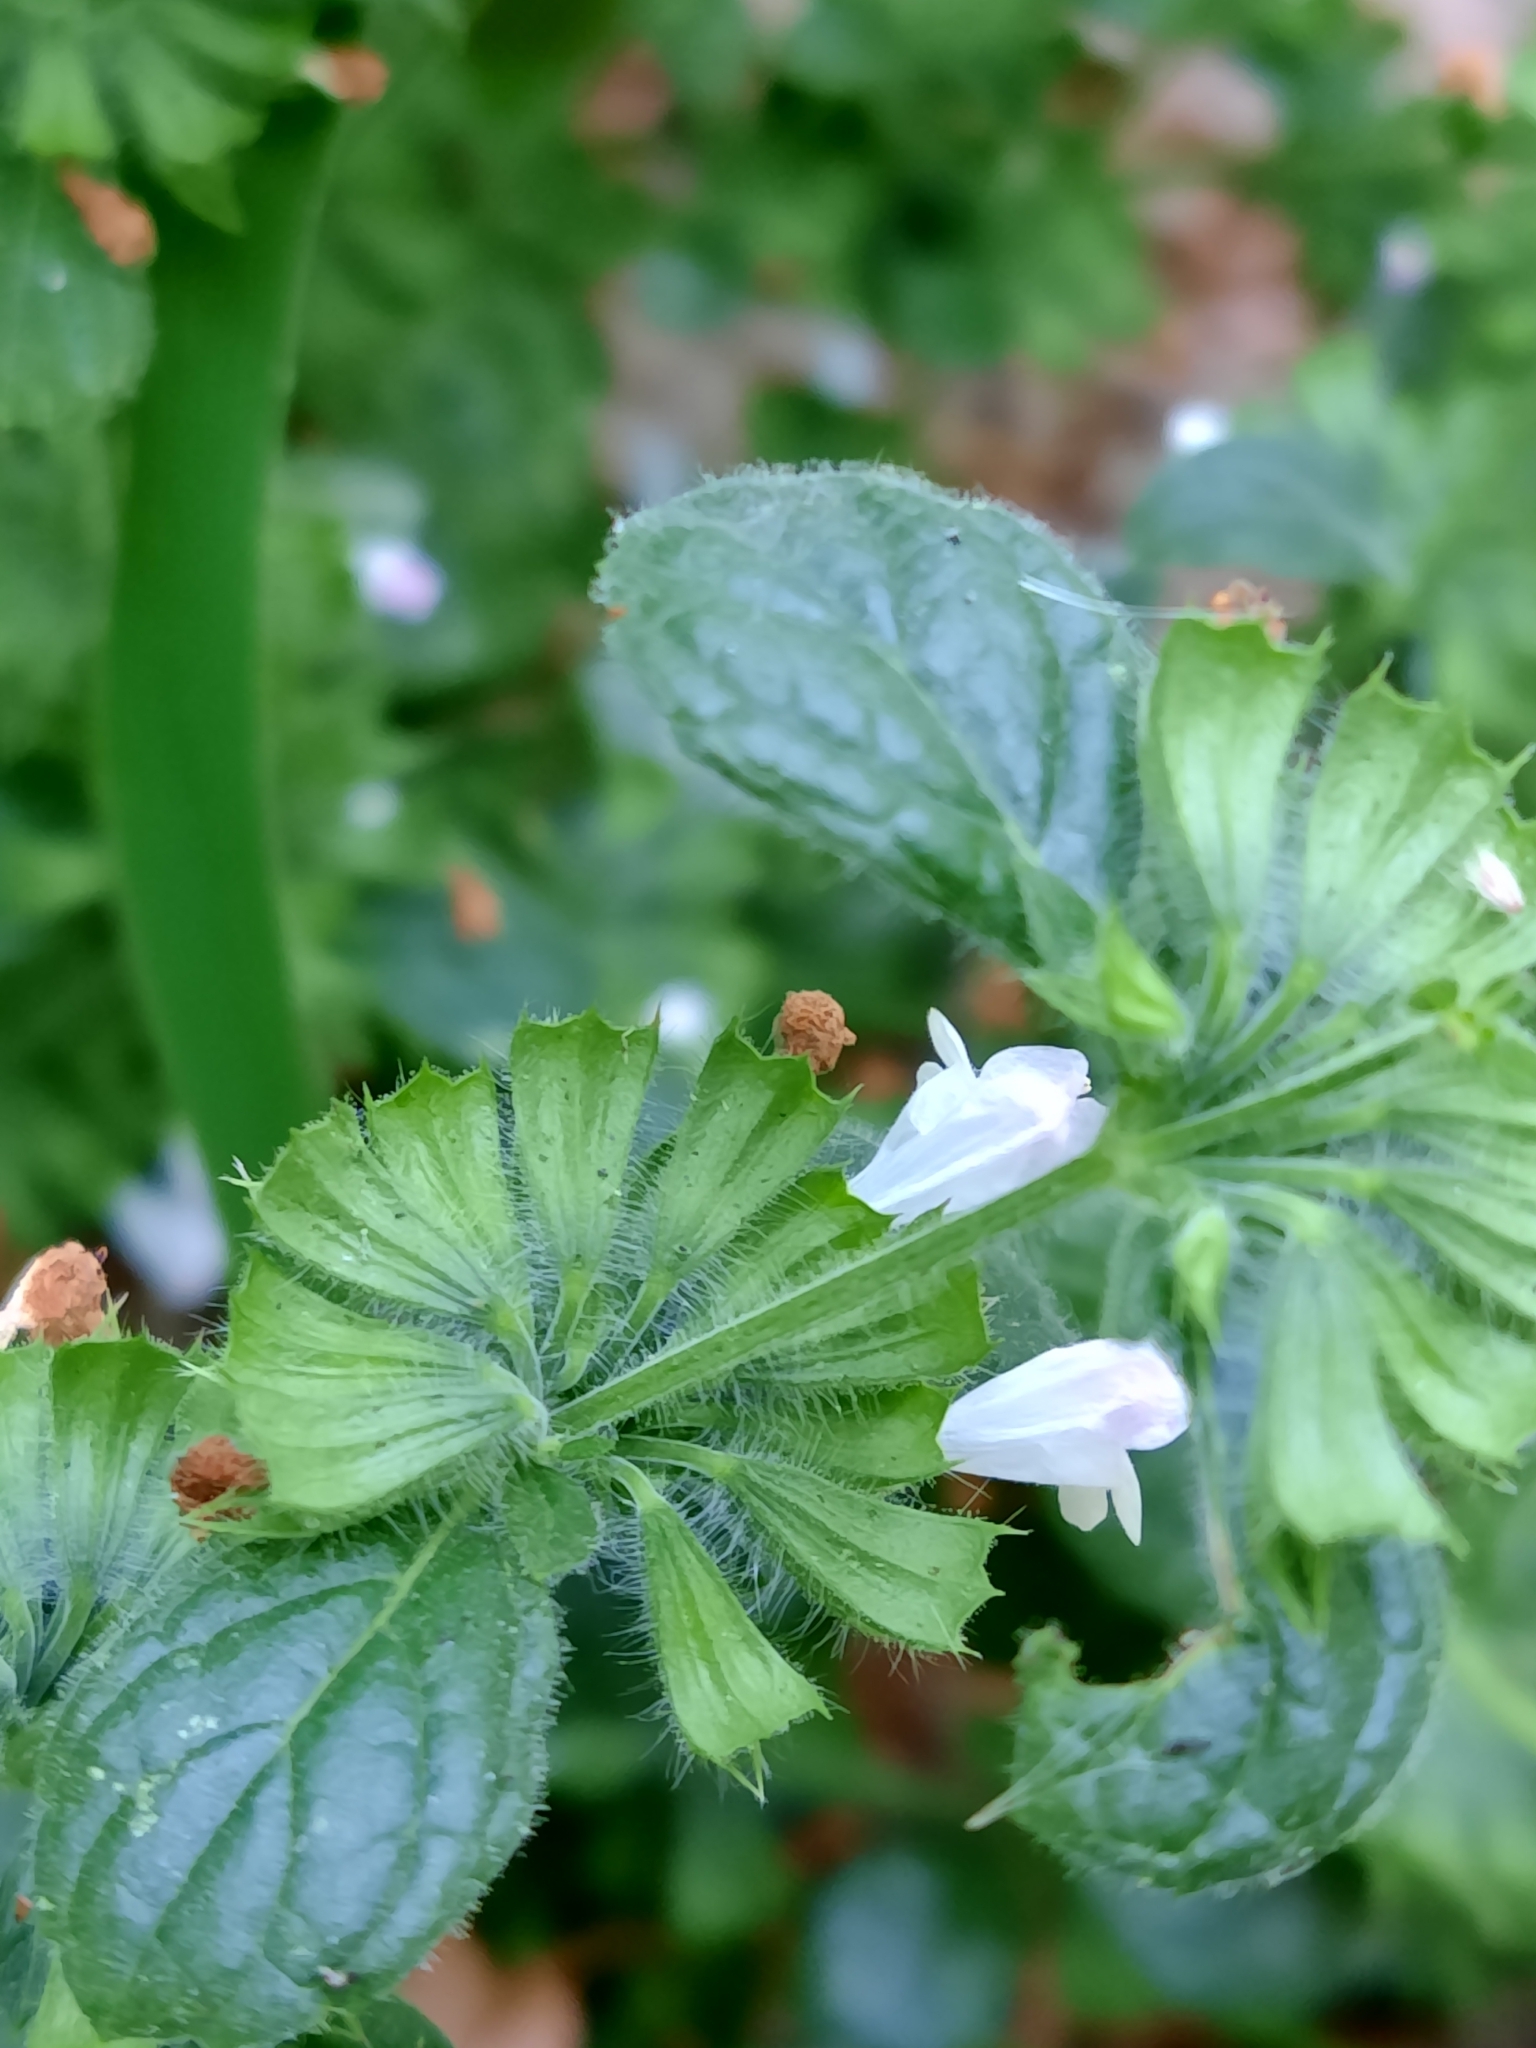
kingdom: Plantae
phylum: Tracheophyta
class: Magnoliopsida
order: Lamiales
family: Lamiaceae
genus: Melissa
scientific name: Melissa officinalis
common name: Balm
